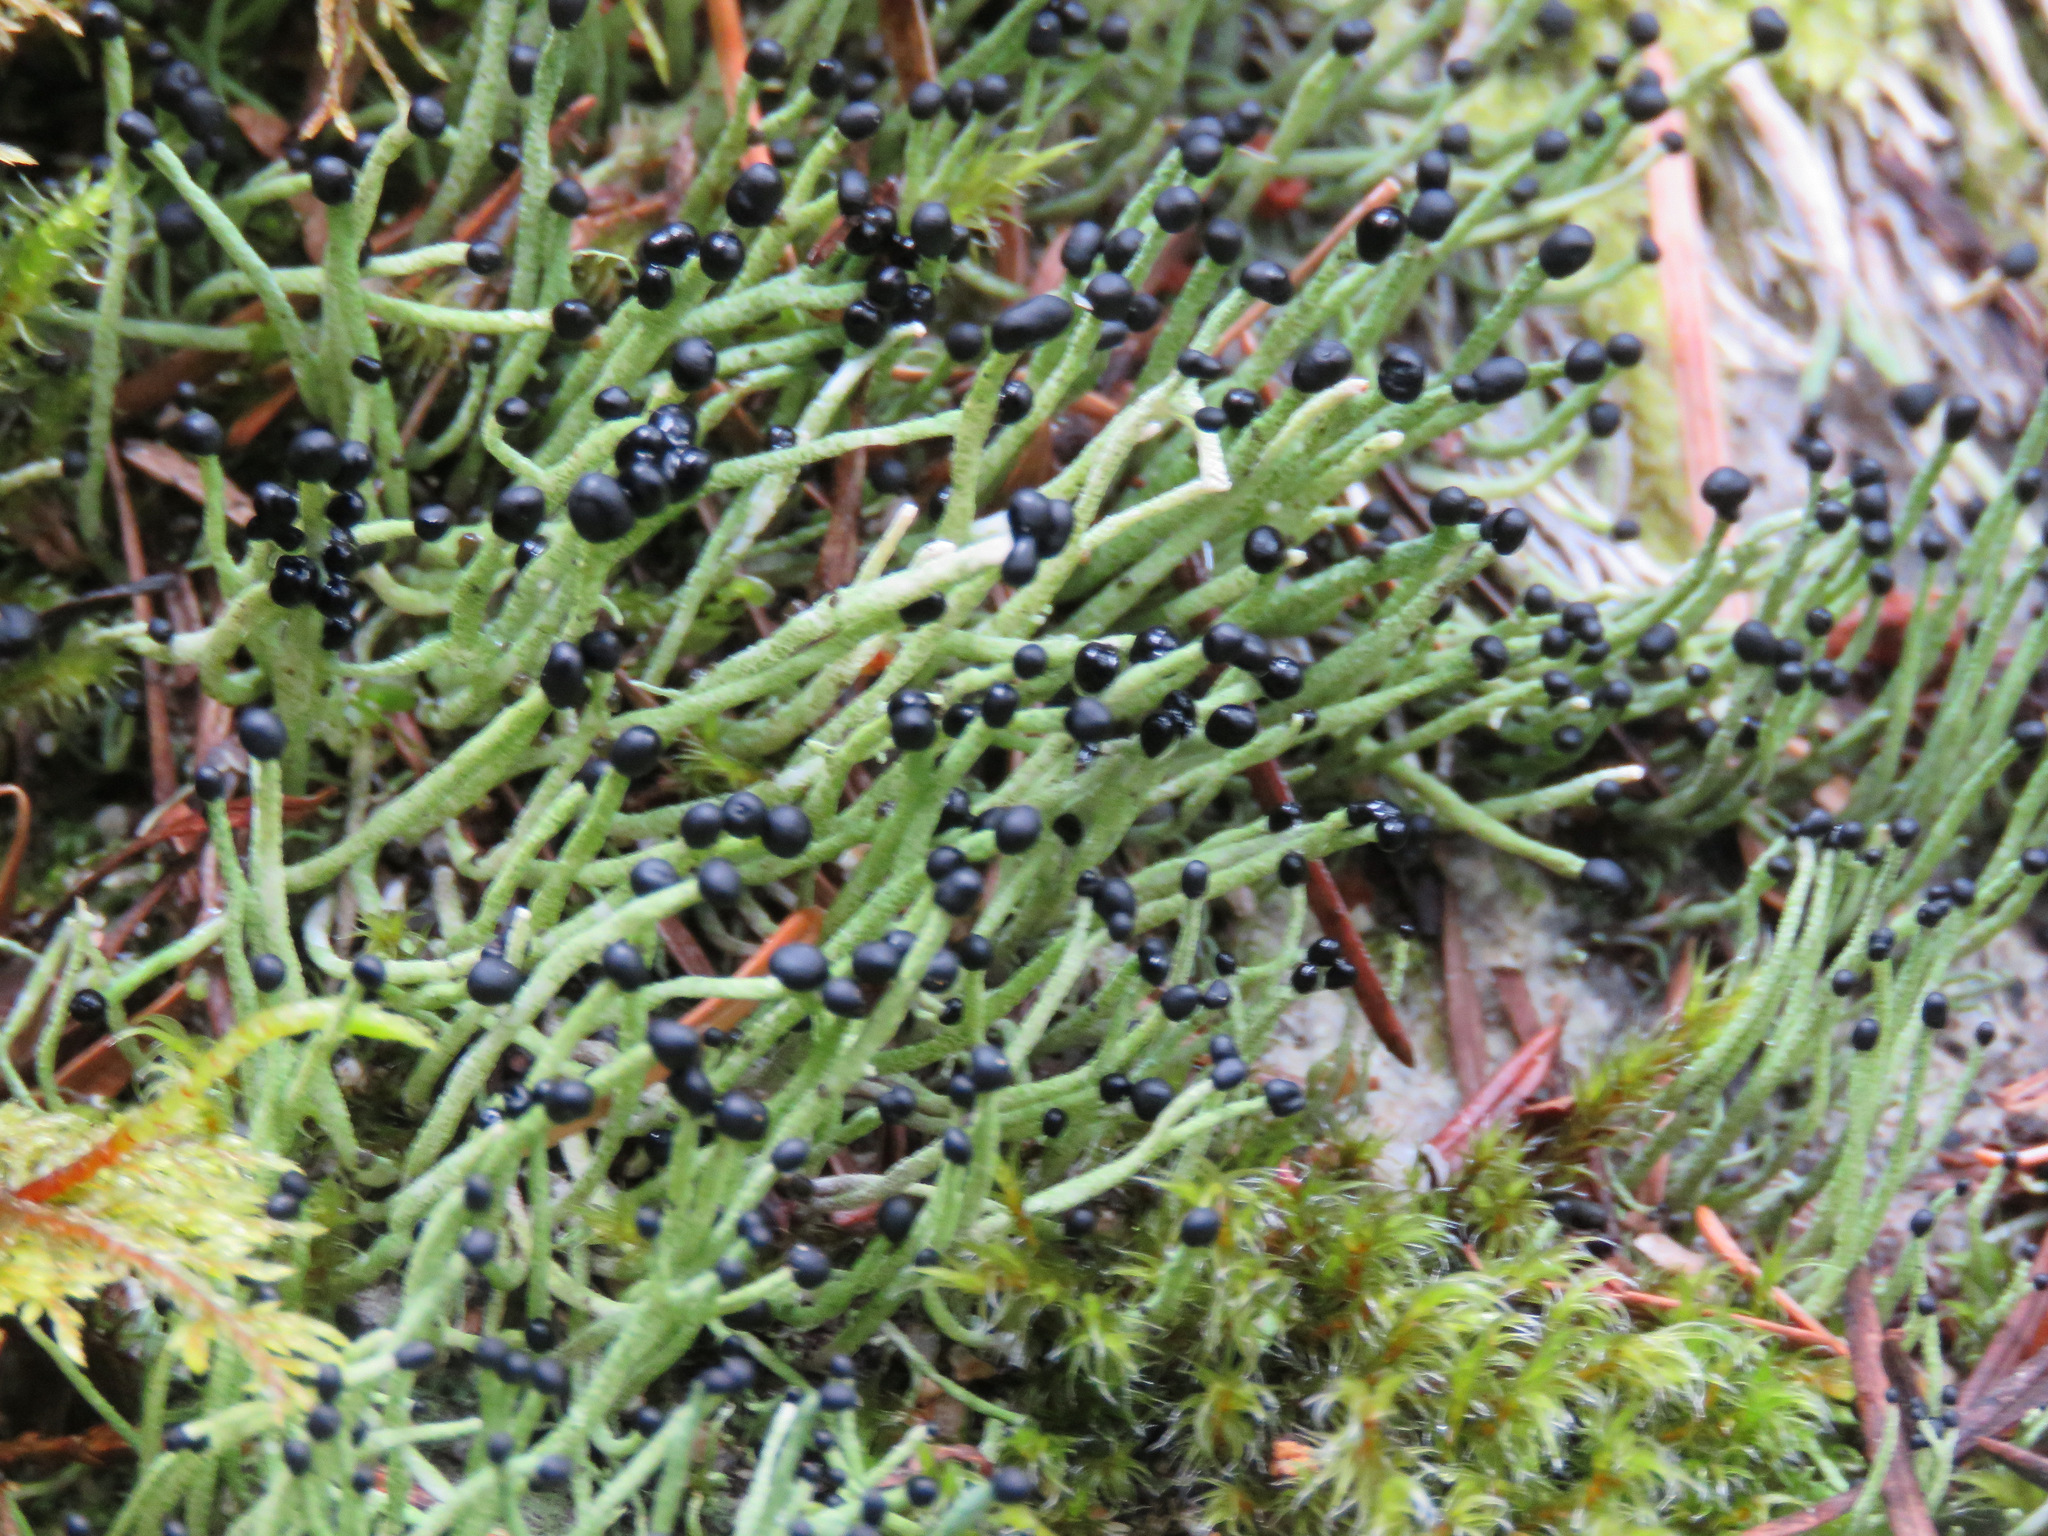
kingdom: Fungi
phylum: Ascomycota
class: Lecanoromycetes
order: Lecanorales
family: Cladoniaceae
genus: Pilophorus
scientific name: Pilophorus acicularis
